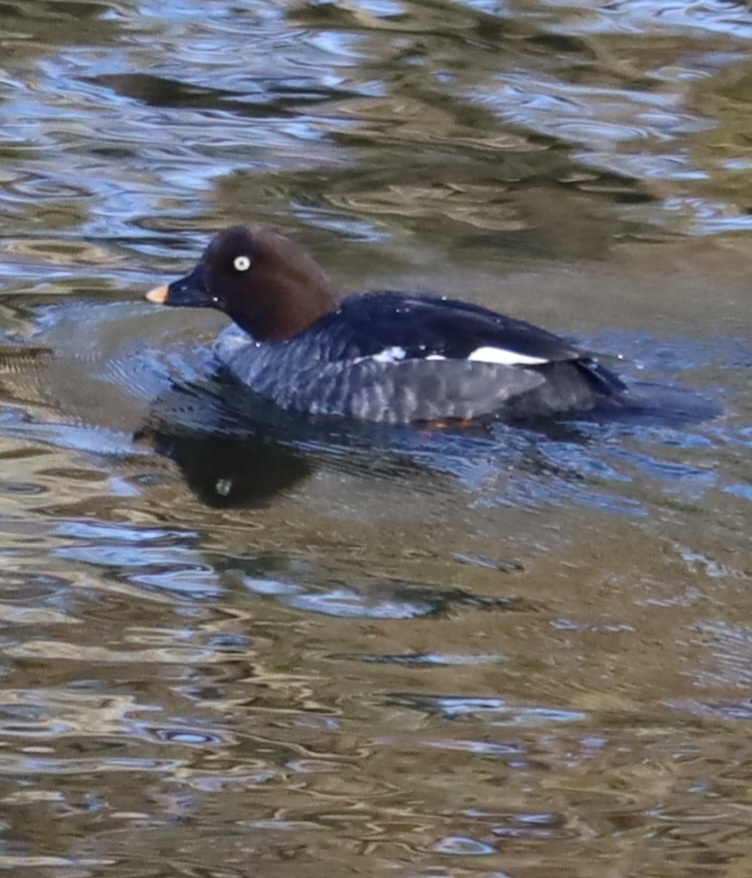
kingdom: Animalia
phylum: Chordata
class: Aves
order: Anseriformes
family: Anatidae
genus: Bucephala
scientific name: Bucephala clangula
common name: Common goldeneye
